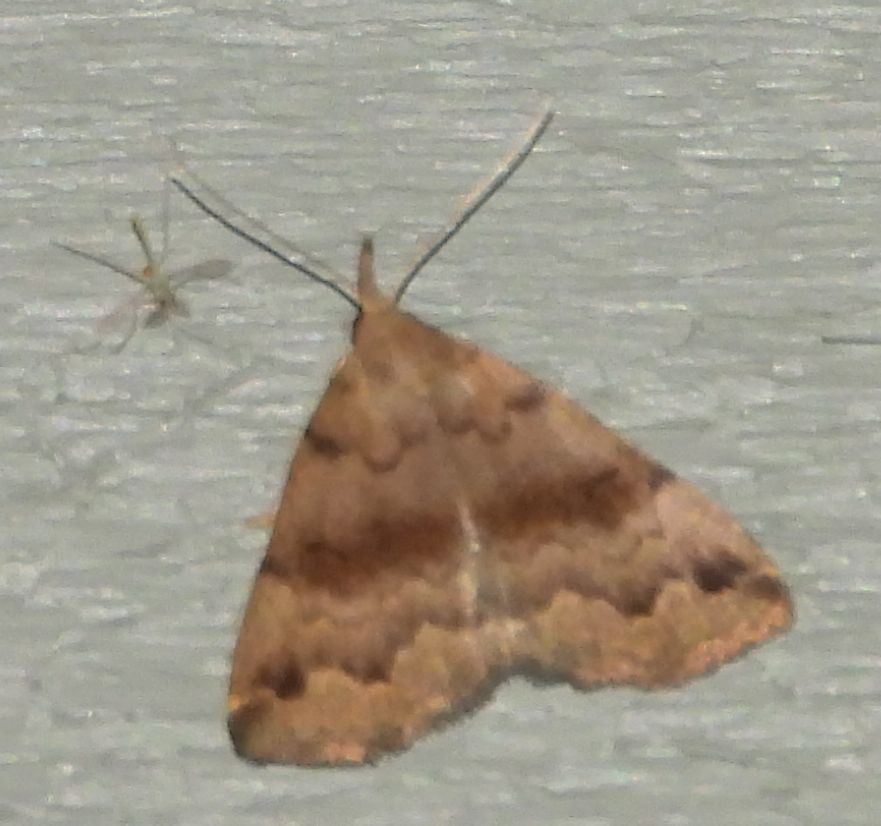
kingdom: Animalia
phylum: Arthropoda
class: Insecta
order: Lepidoptera
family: Erebidae
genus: Phalaenostola
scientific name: Phalaenostola eumelusalis
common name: Dark phalaenostola moth
